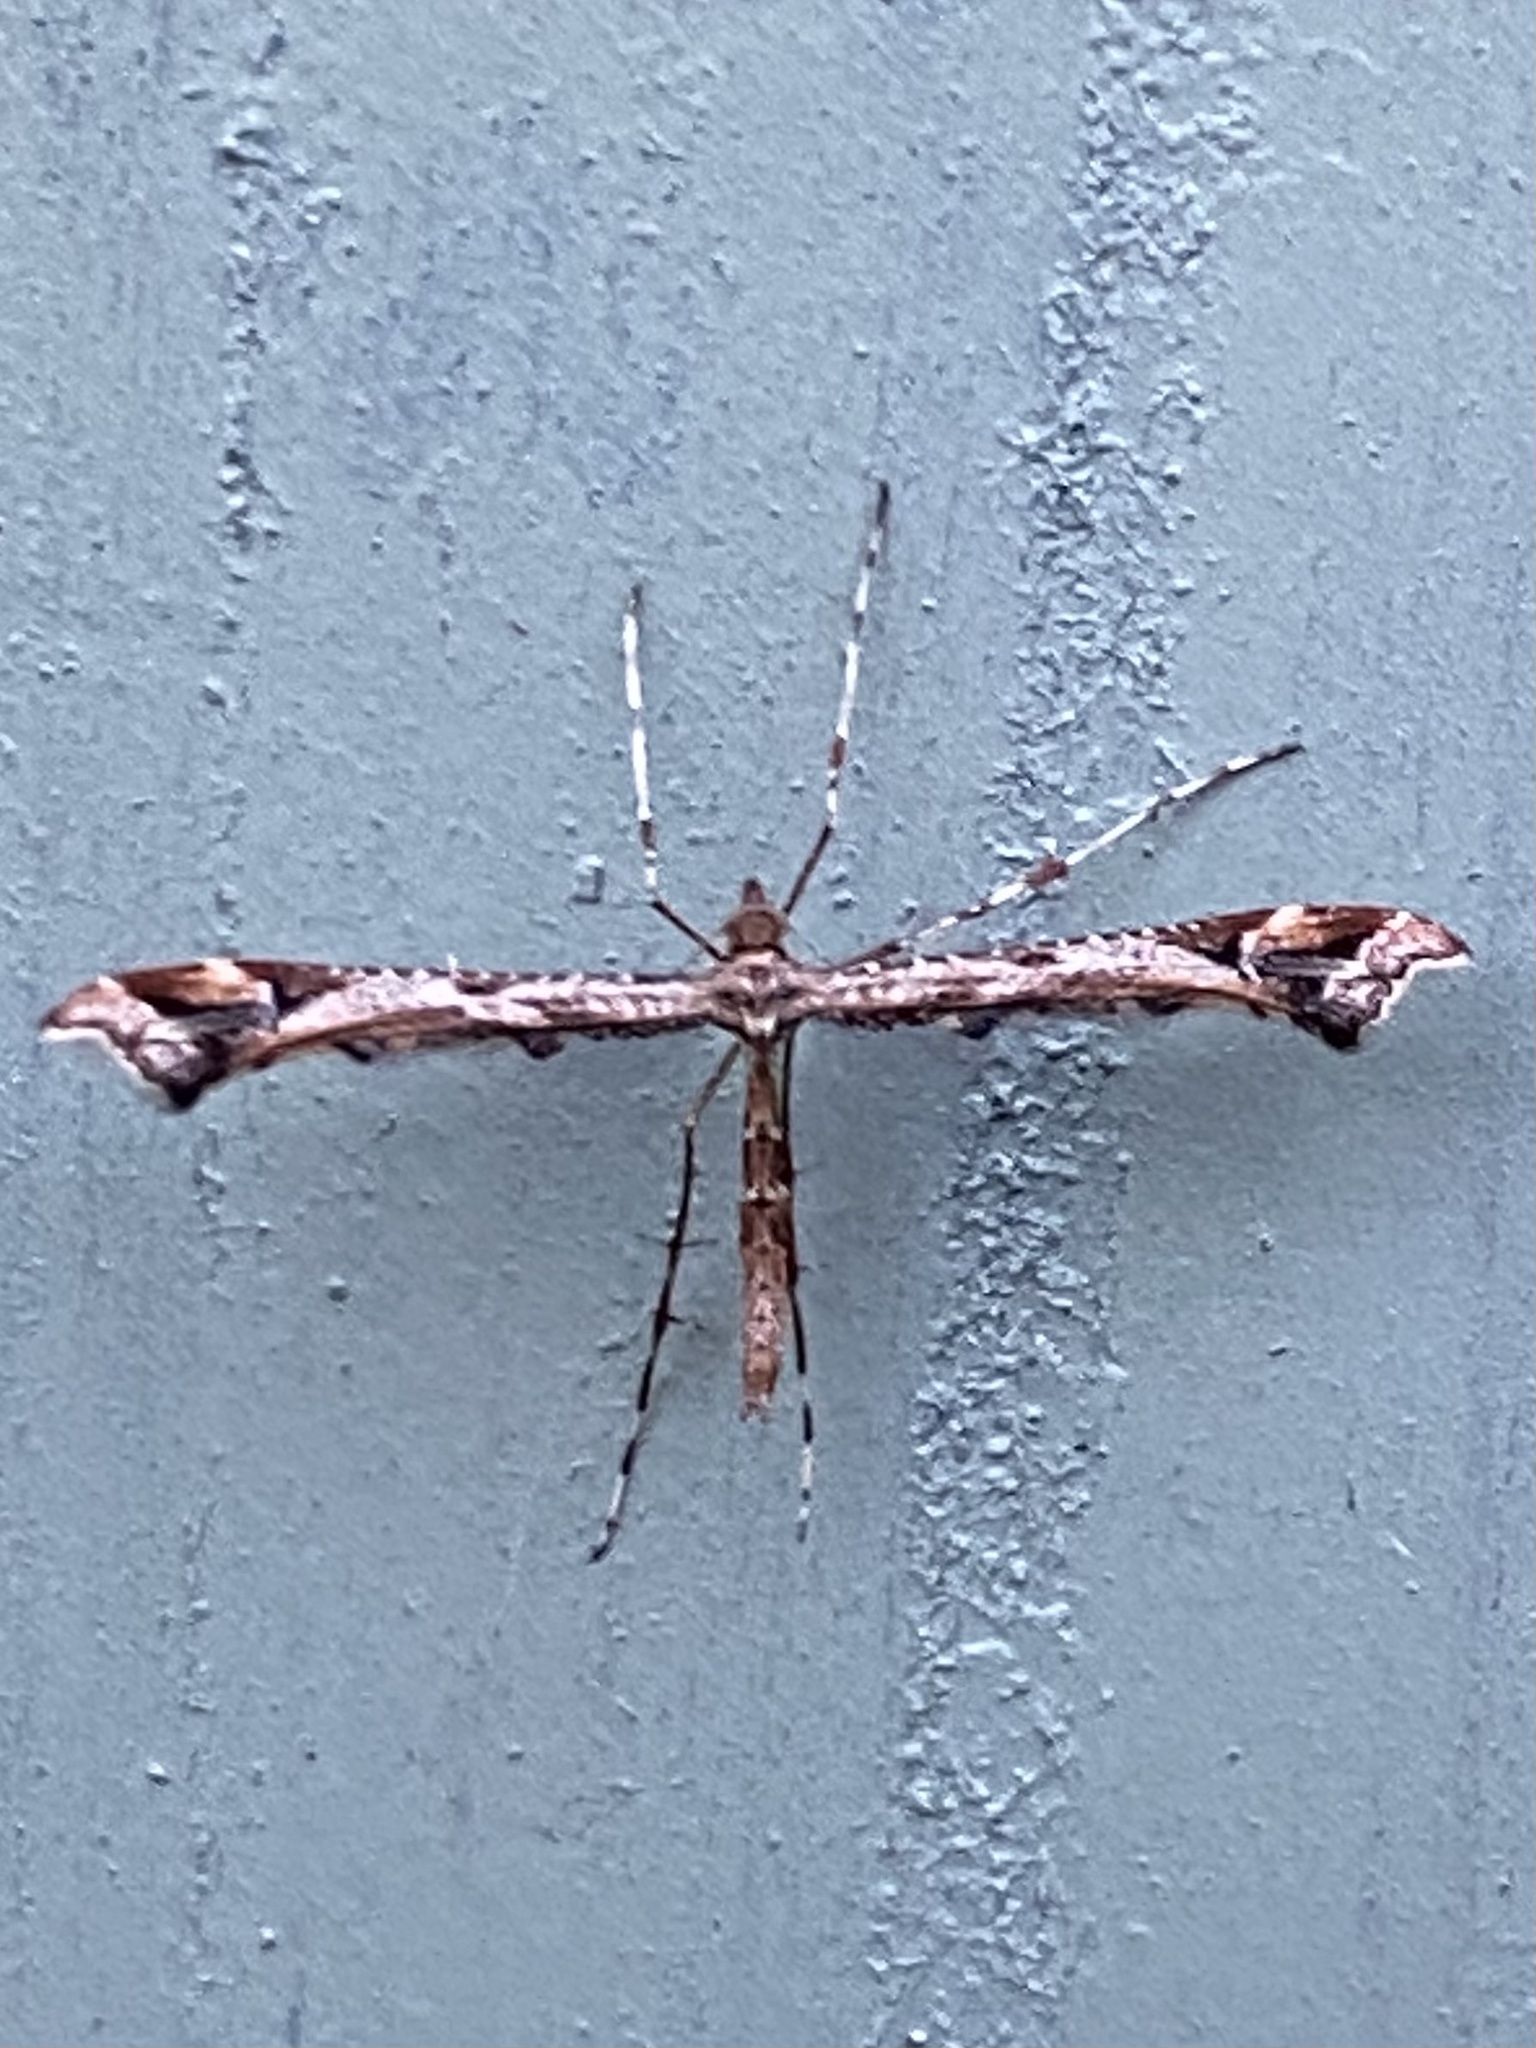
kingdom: Animalia
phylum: Arthropoda
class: Insecta
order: Lepidoptera
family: Pterophoridae
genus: Amblyptilia
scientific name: Amblyptilia acanthadactyla
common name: Beautiful plume
